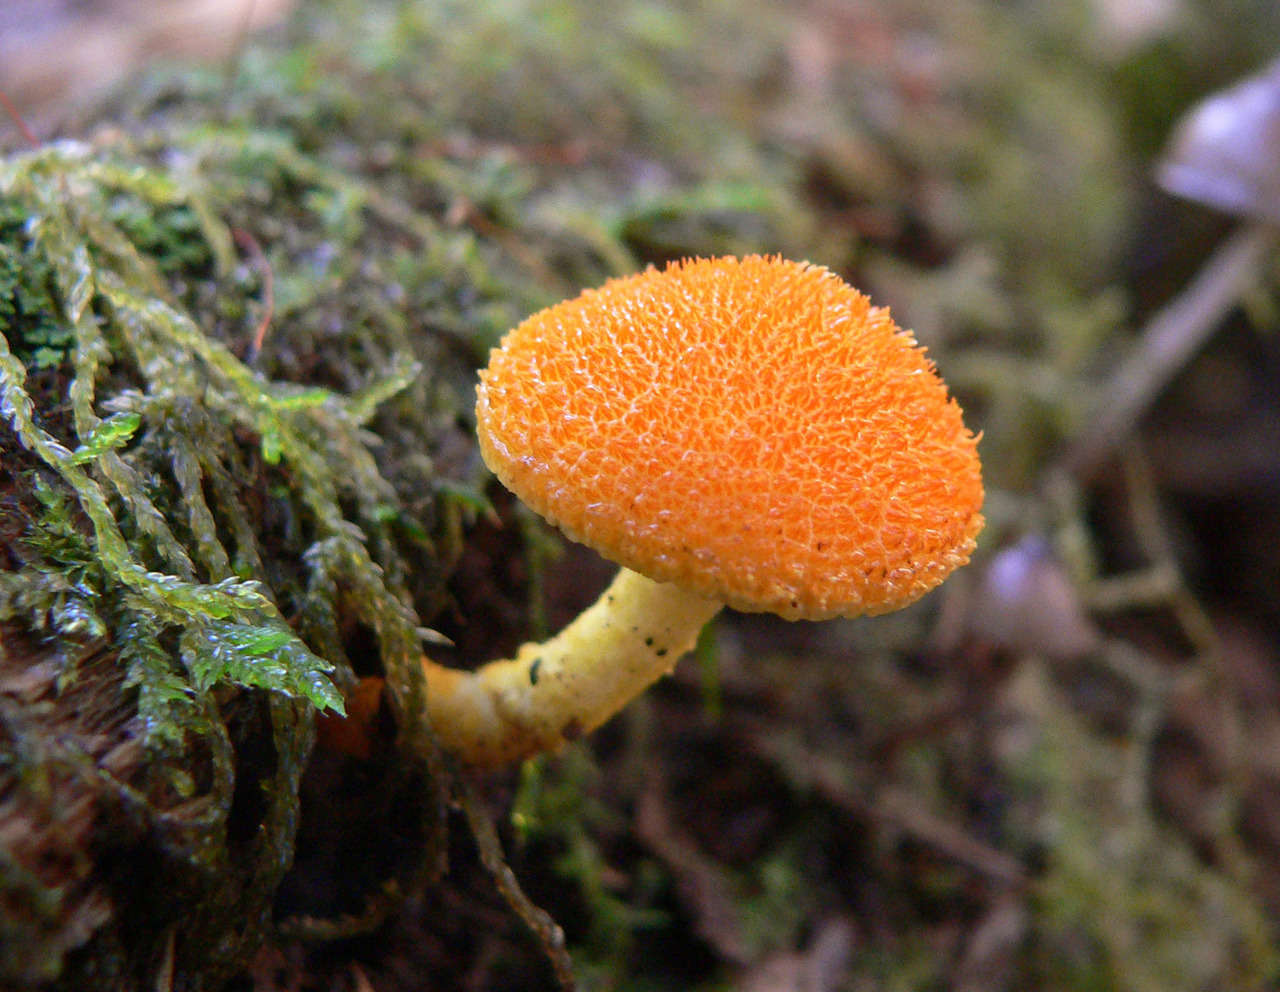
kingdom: Fungi
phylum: Basidiomycota
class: Agaricomycetes
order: Agaricales
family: Physalacriaceae
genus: Cyptotrama
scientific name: Cyptotrama asprata
